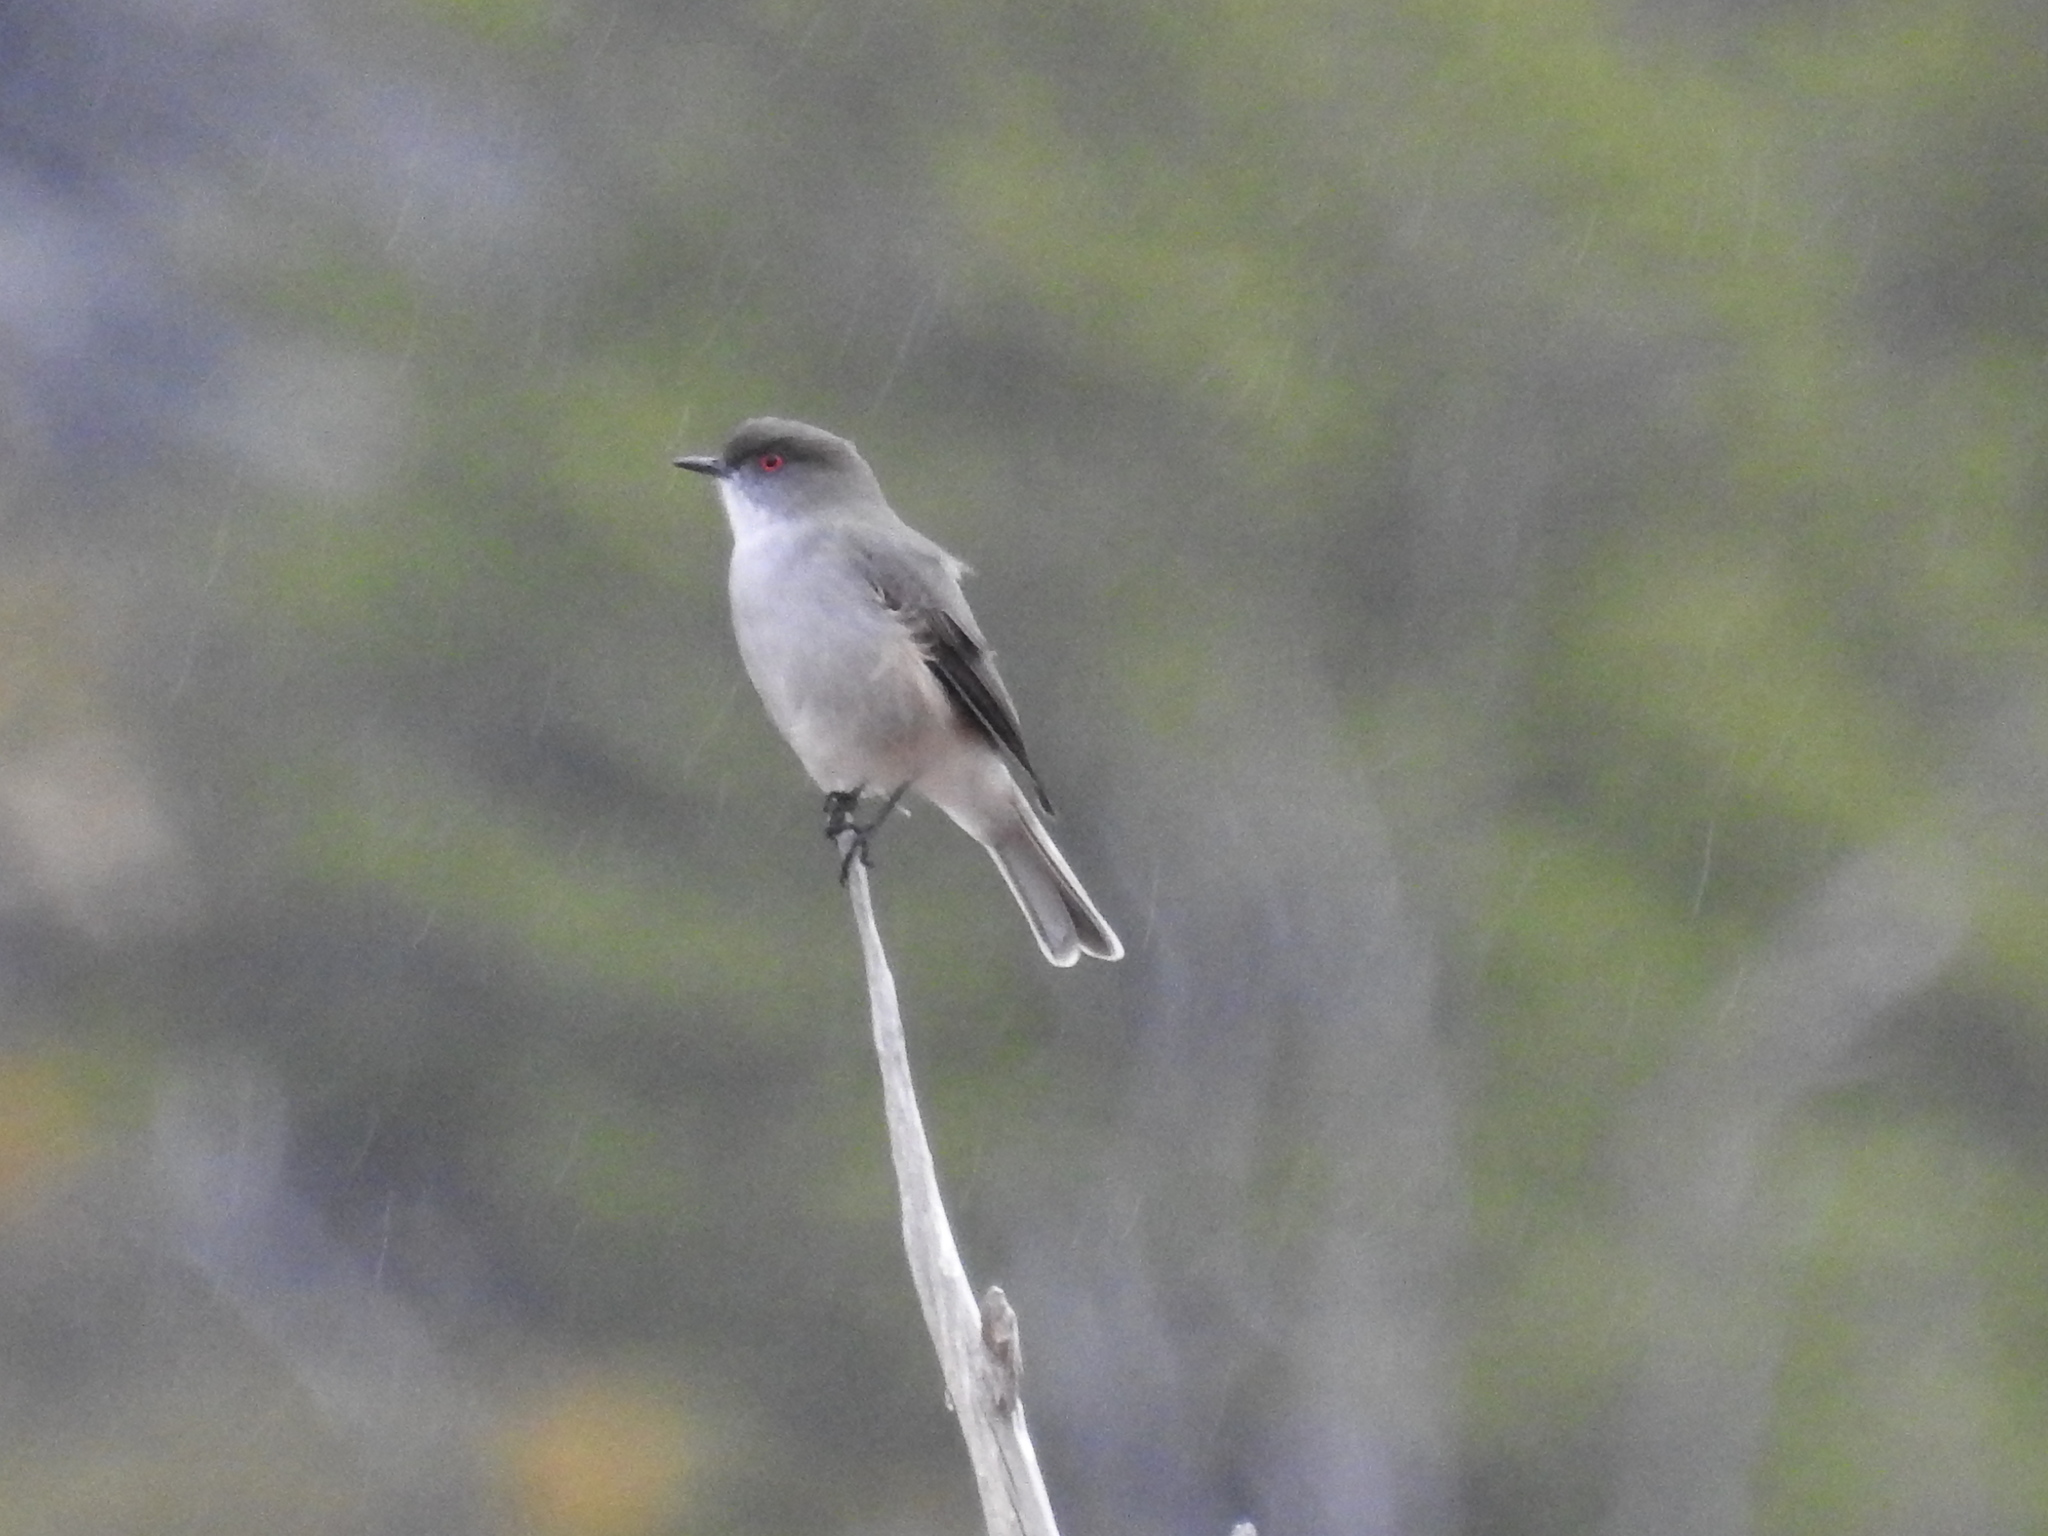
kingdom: Animalia
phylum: Chordata
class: Aves
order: Passeriformes
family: Tyrannidae
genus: Xolmis
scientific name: Xolmis pyrope
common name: Fire-eyed diucon
